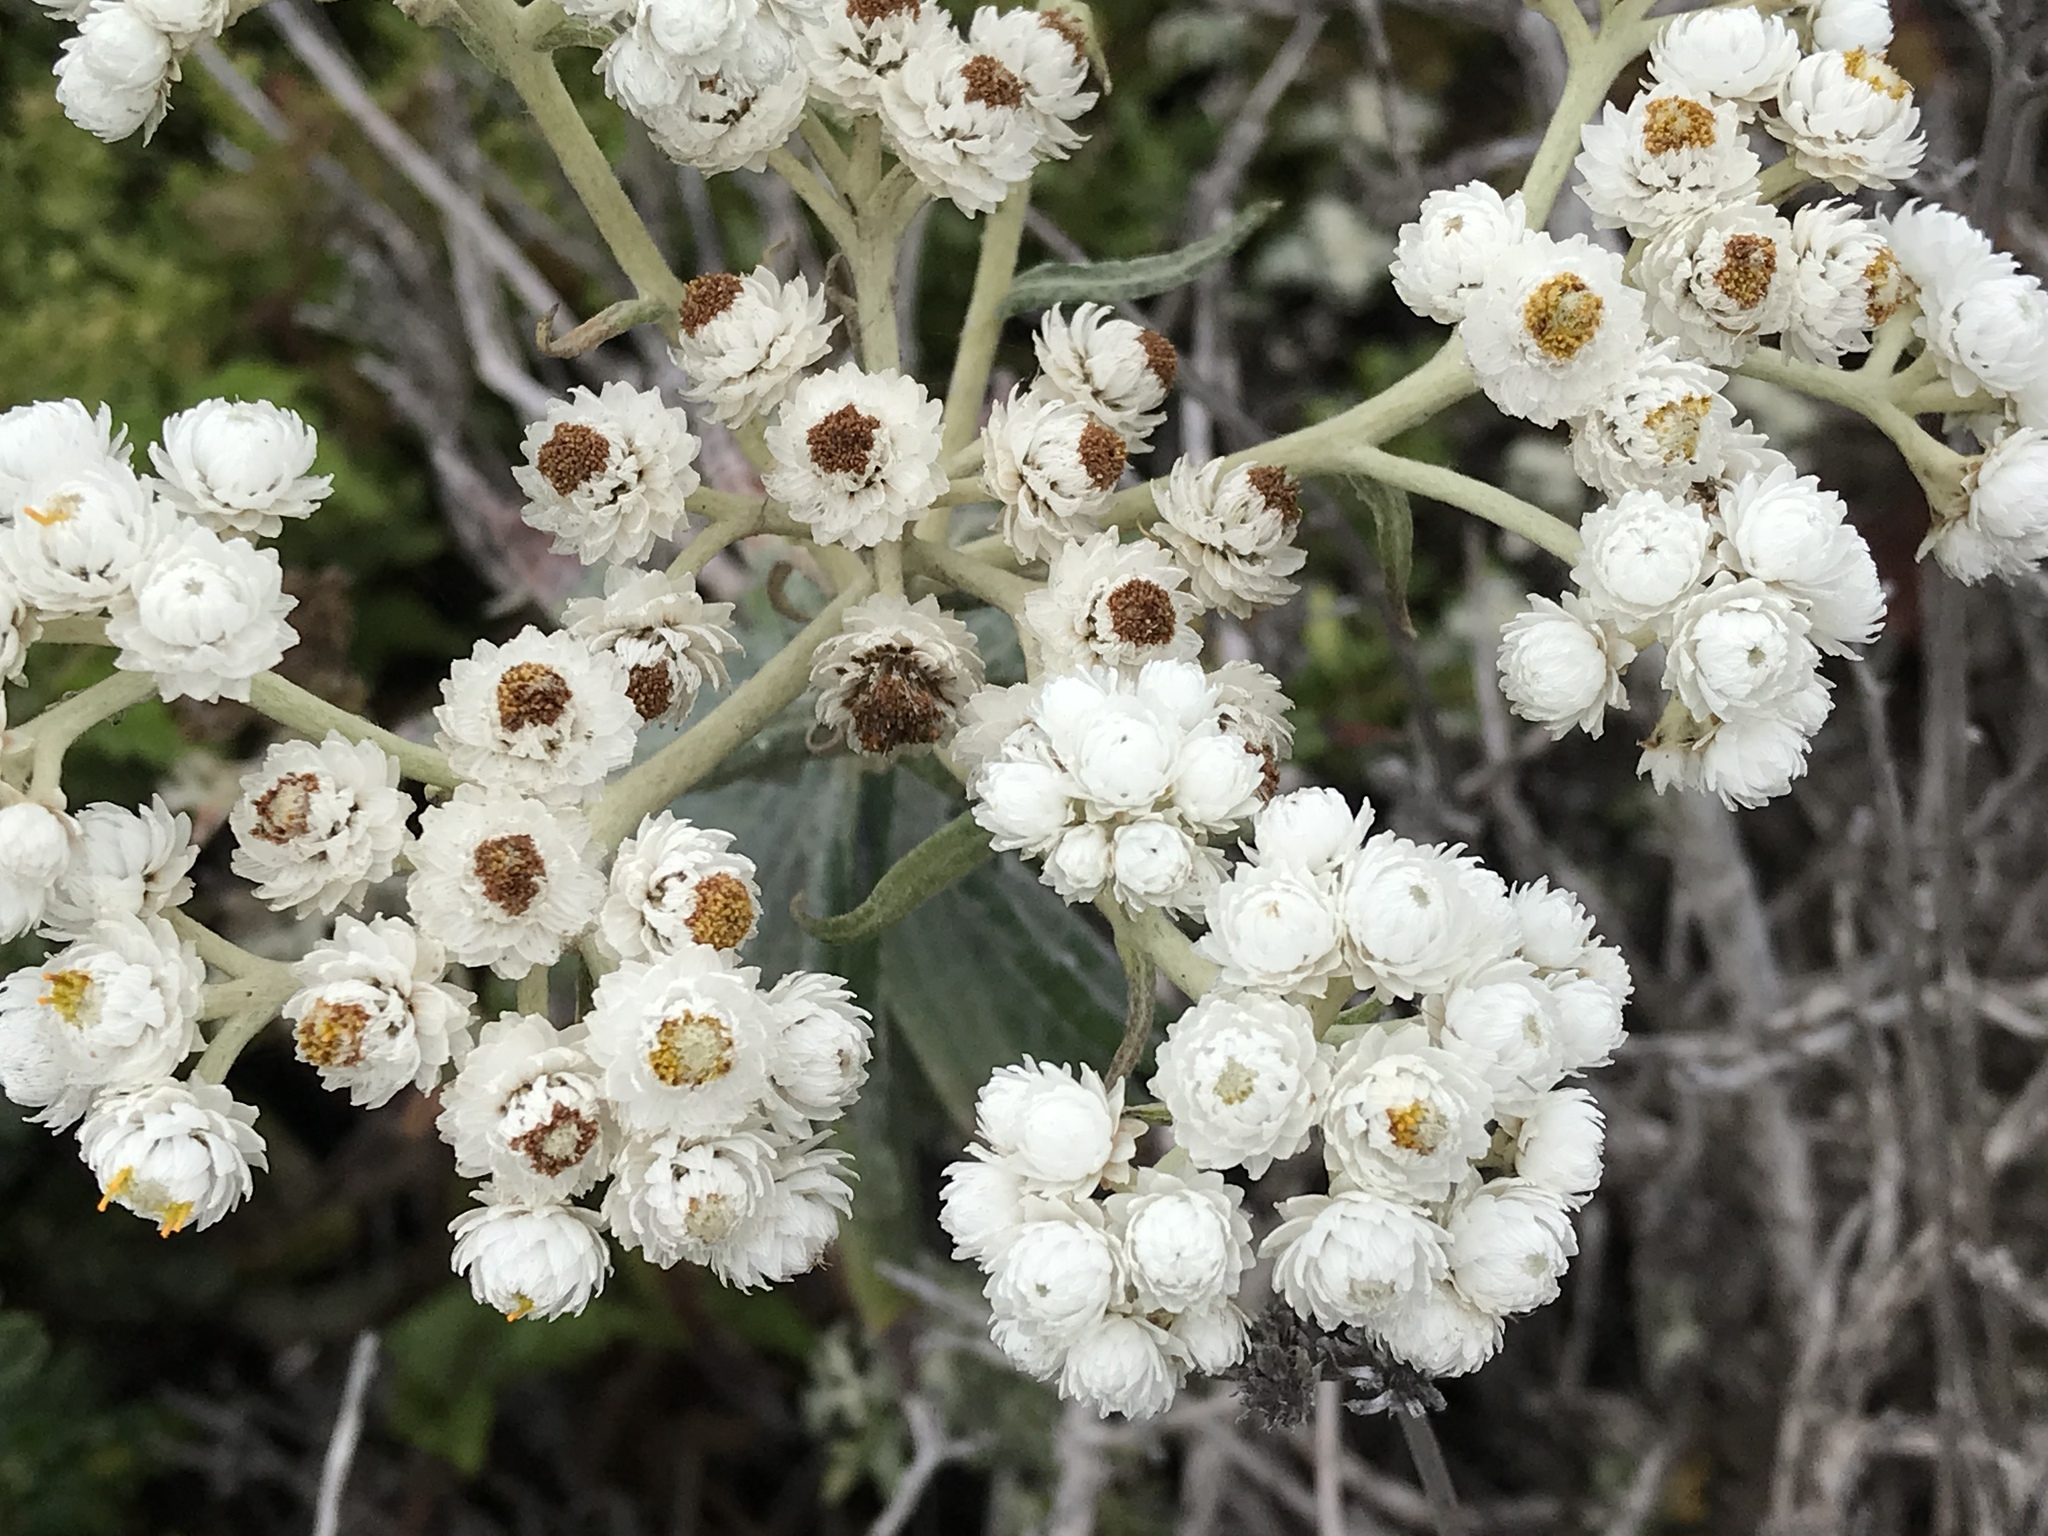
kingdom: Plantae
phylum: Tracheophyta
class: Magnoliopsida
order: Asterales
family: Asteraceae
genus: Anaphalis
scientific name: Anaphalis margaritacea
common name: Pearly everlasting
